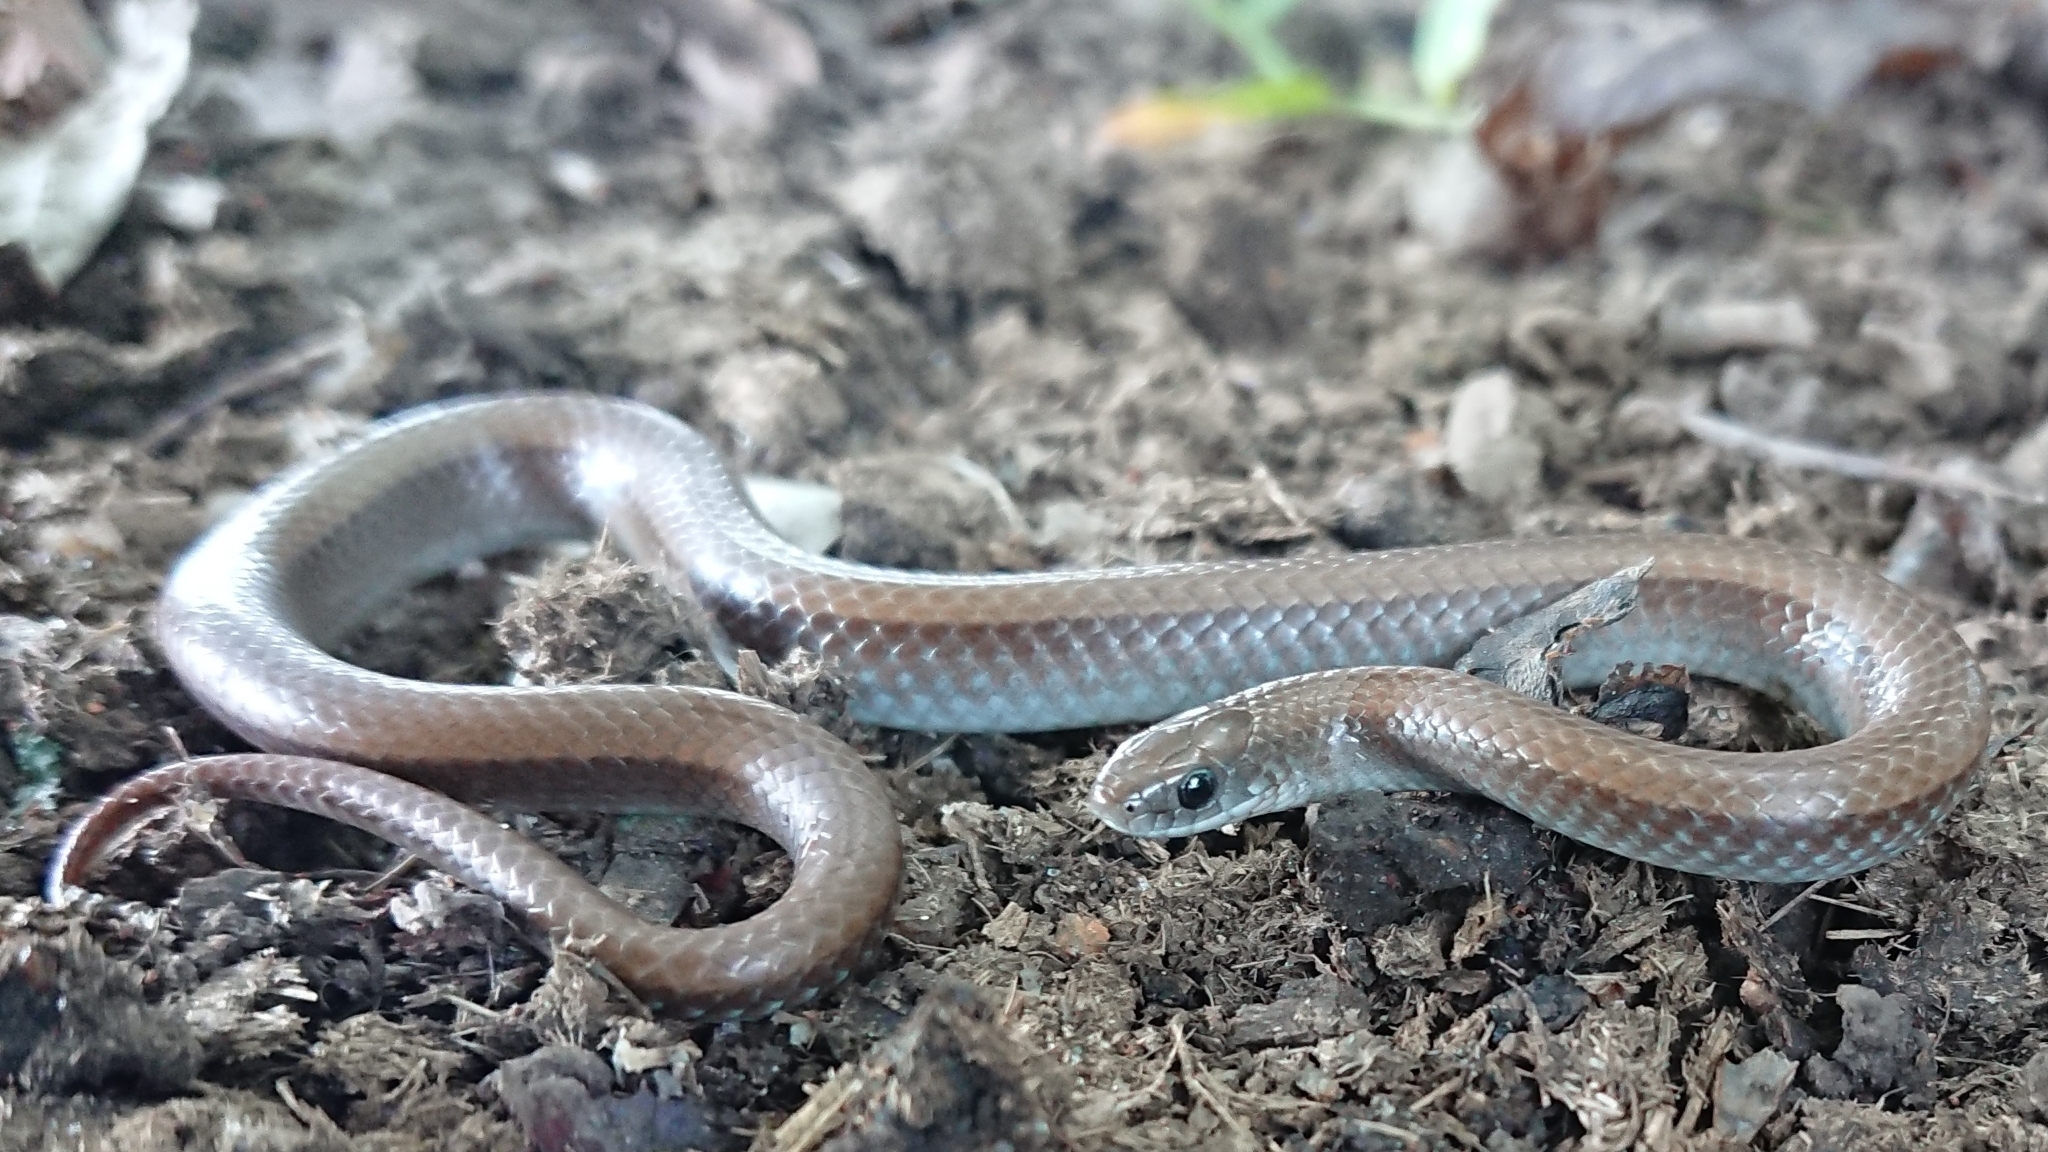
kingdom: Animalia
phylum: Chordata
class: Squamata
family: Pseudoxyrhophiidae
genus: Duberria
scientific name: Duberria lutrix
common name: Common slug eater
